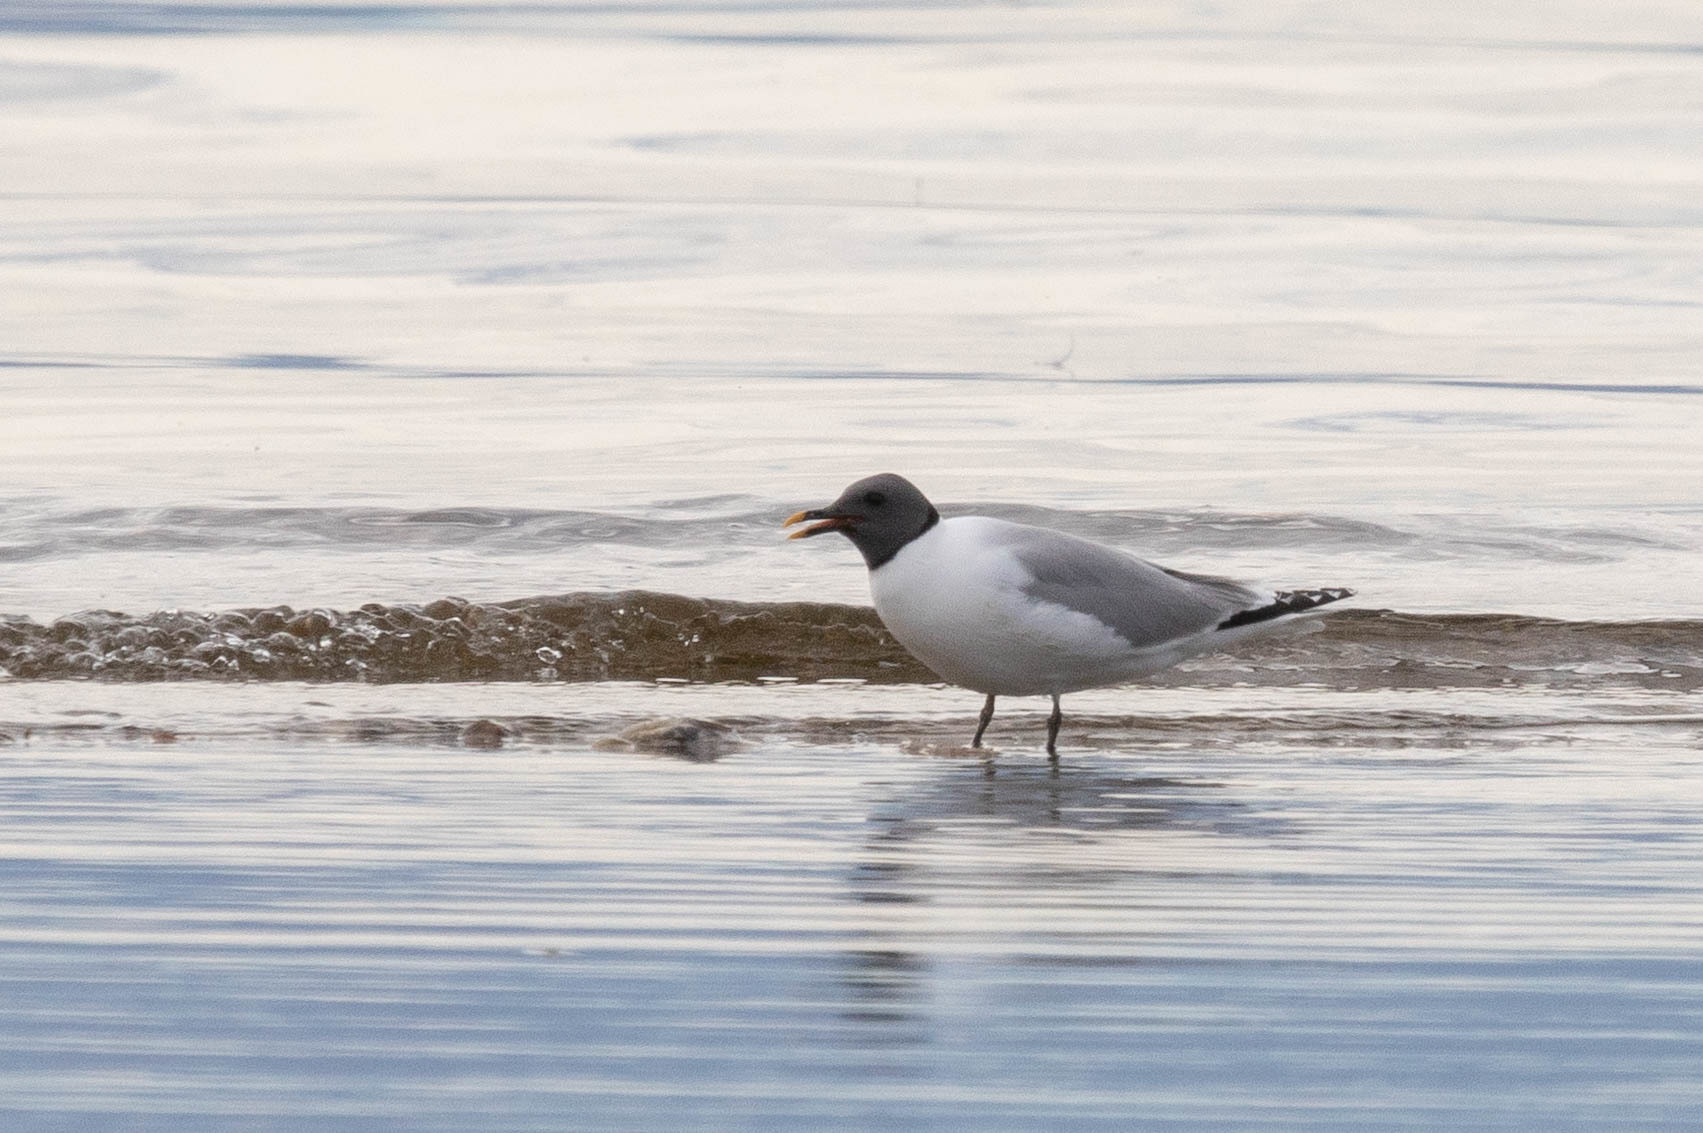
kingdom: Animalia
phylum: Chordata
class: Aves
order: Charadriiformes
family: Laridae
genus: Xema
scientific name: Xema sabini
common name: Sabine's gull
